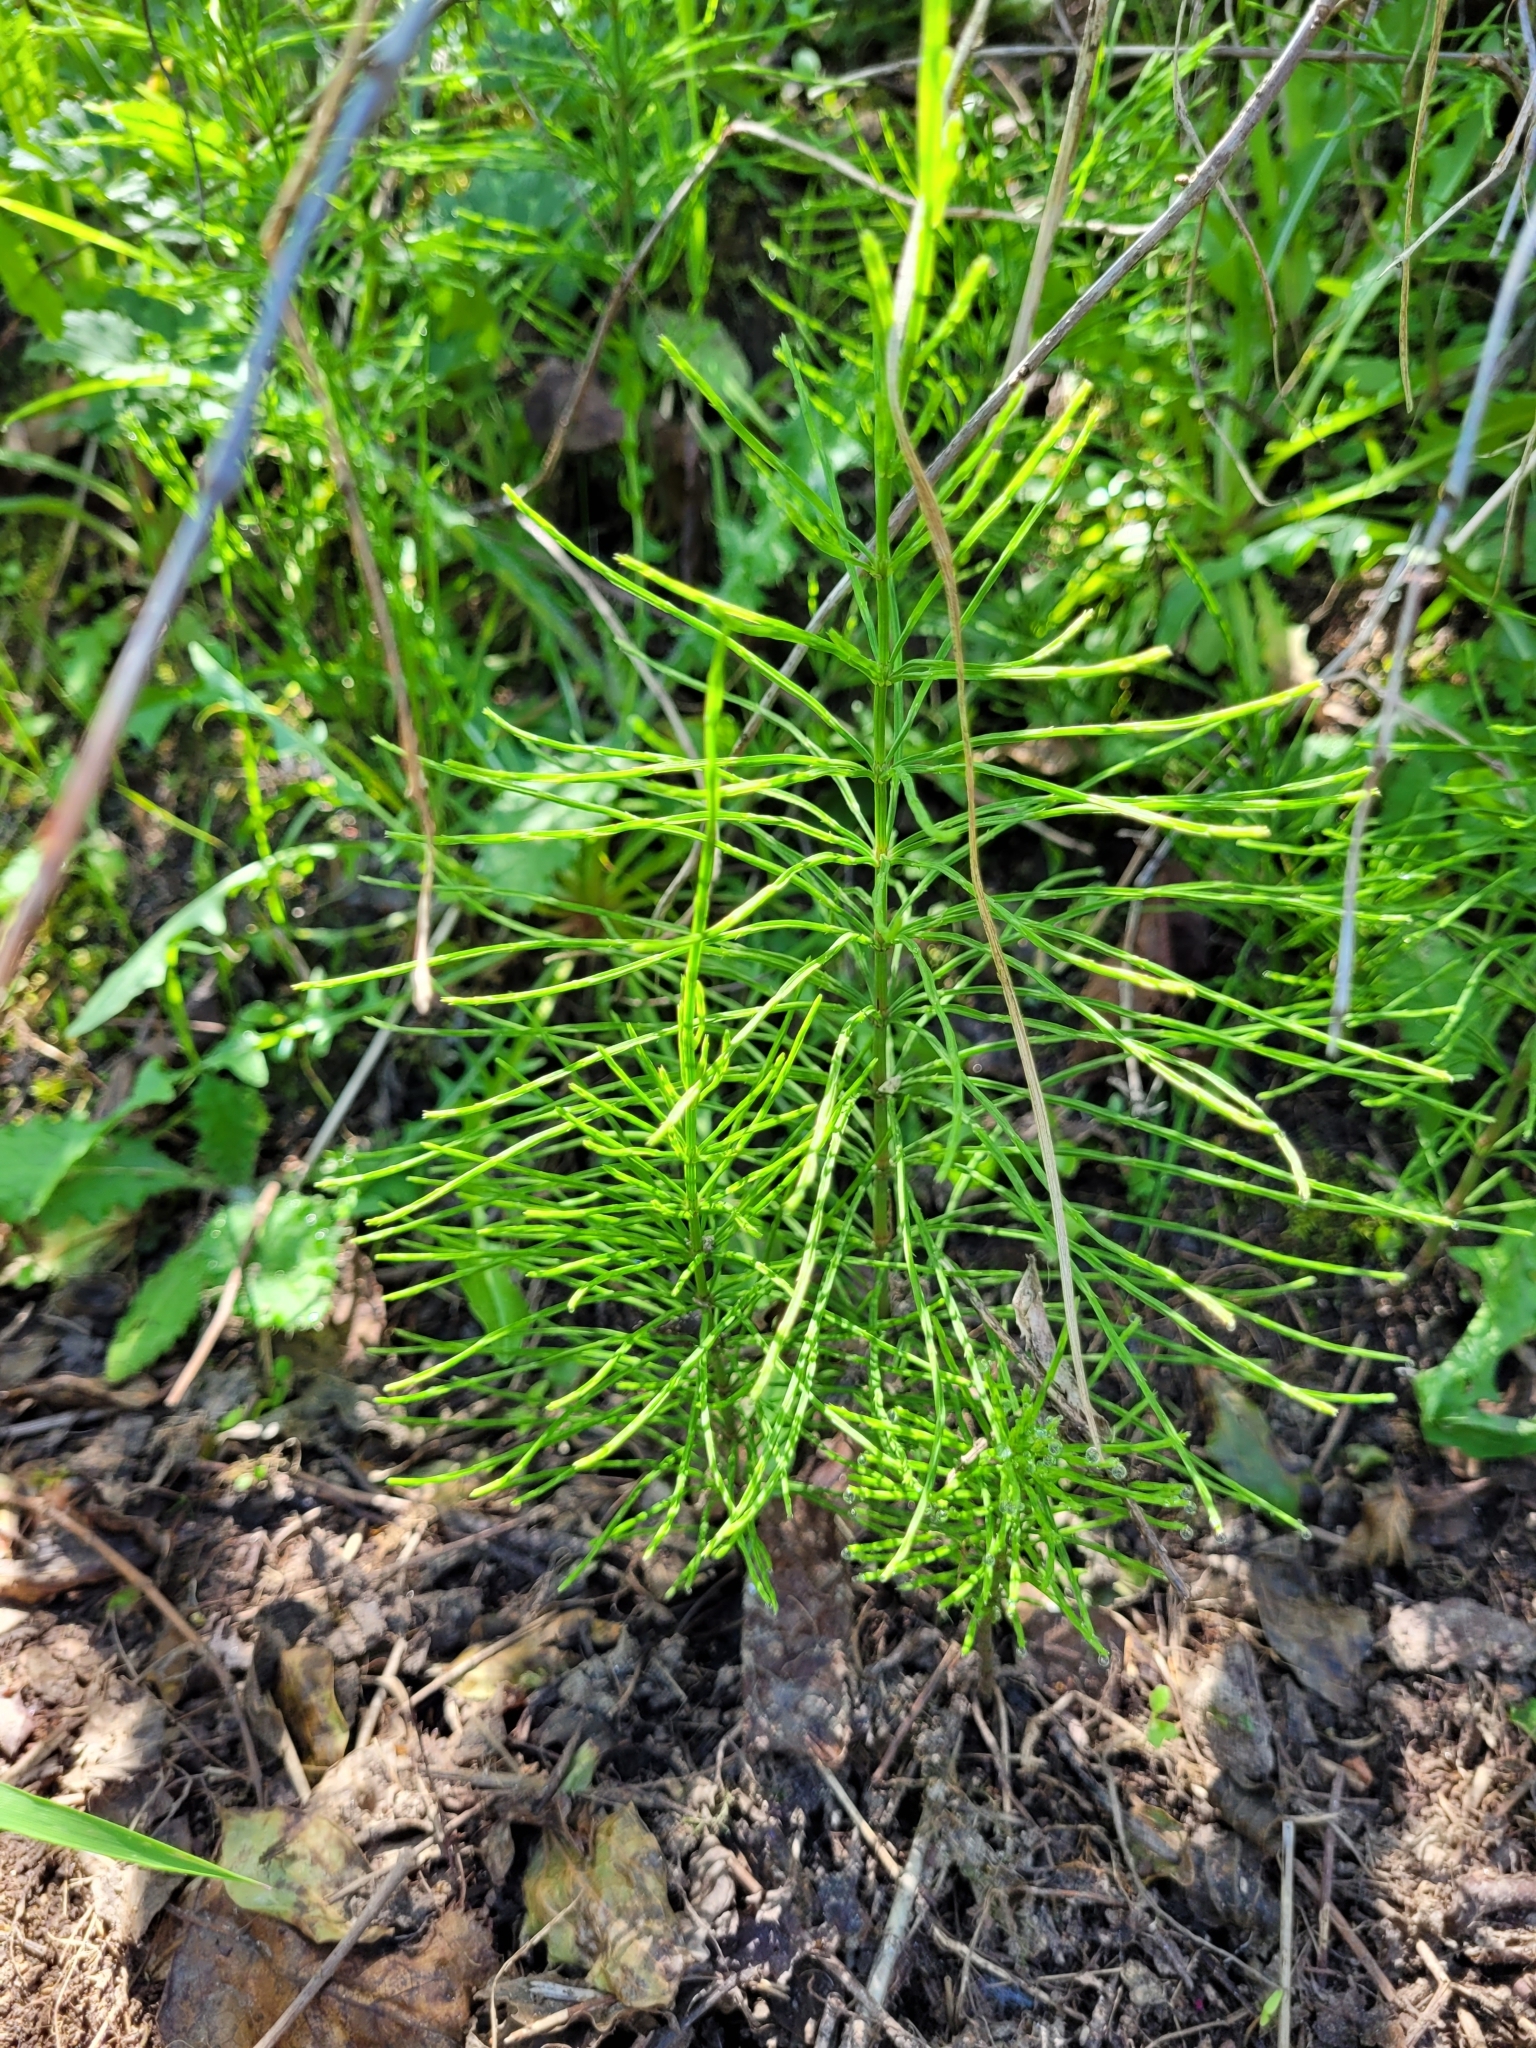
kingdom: Plantae
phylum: Tracheophyta
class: Polypodiopsida
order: Equisetales
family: Equisetaceae
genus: Equisetum
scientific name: Equisetum arvense
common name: Field horsetail
